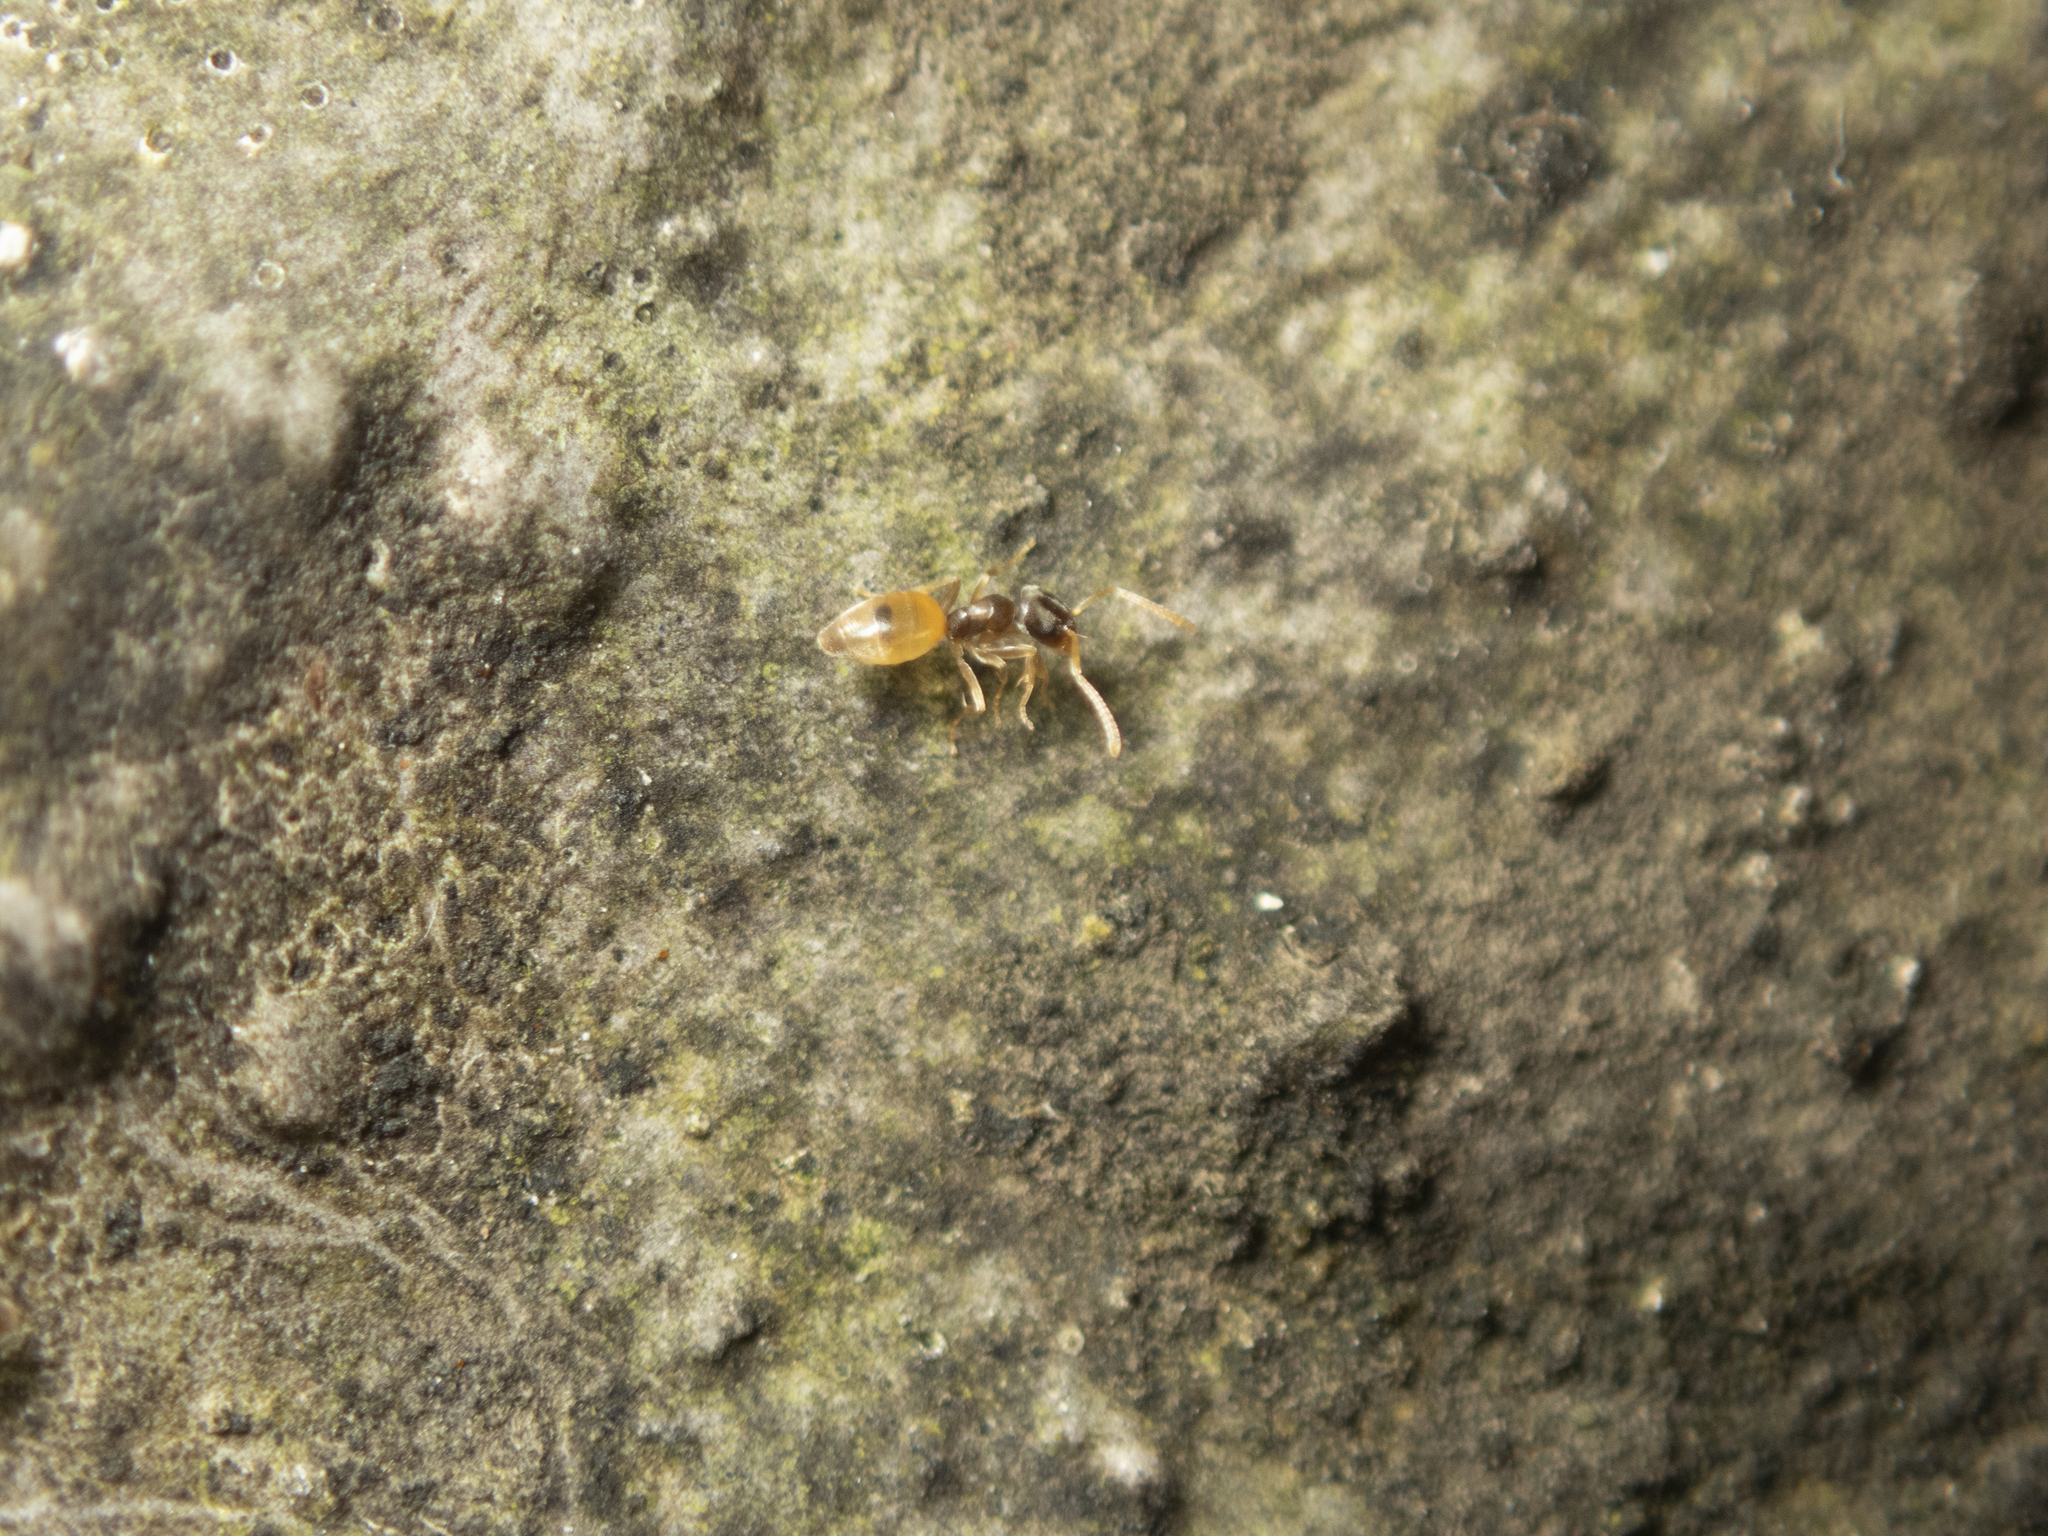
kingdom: Animalia
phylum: Arthropoda
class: Insecta
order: Hymenoptera
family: Formicidae
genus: Tapinoma
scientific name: Tapinoma melanocephalum
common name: Ghost ant
